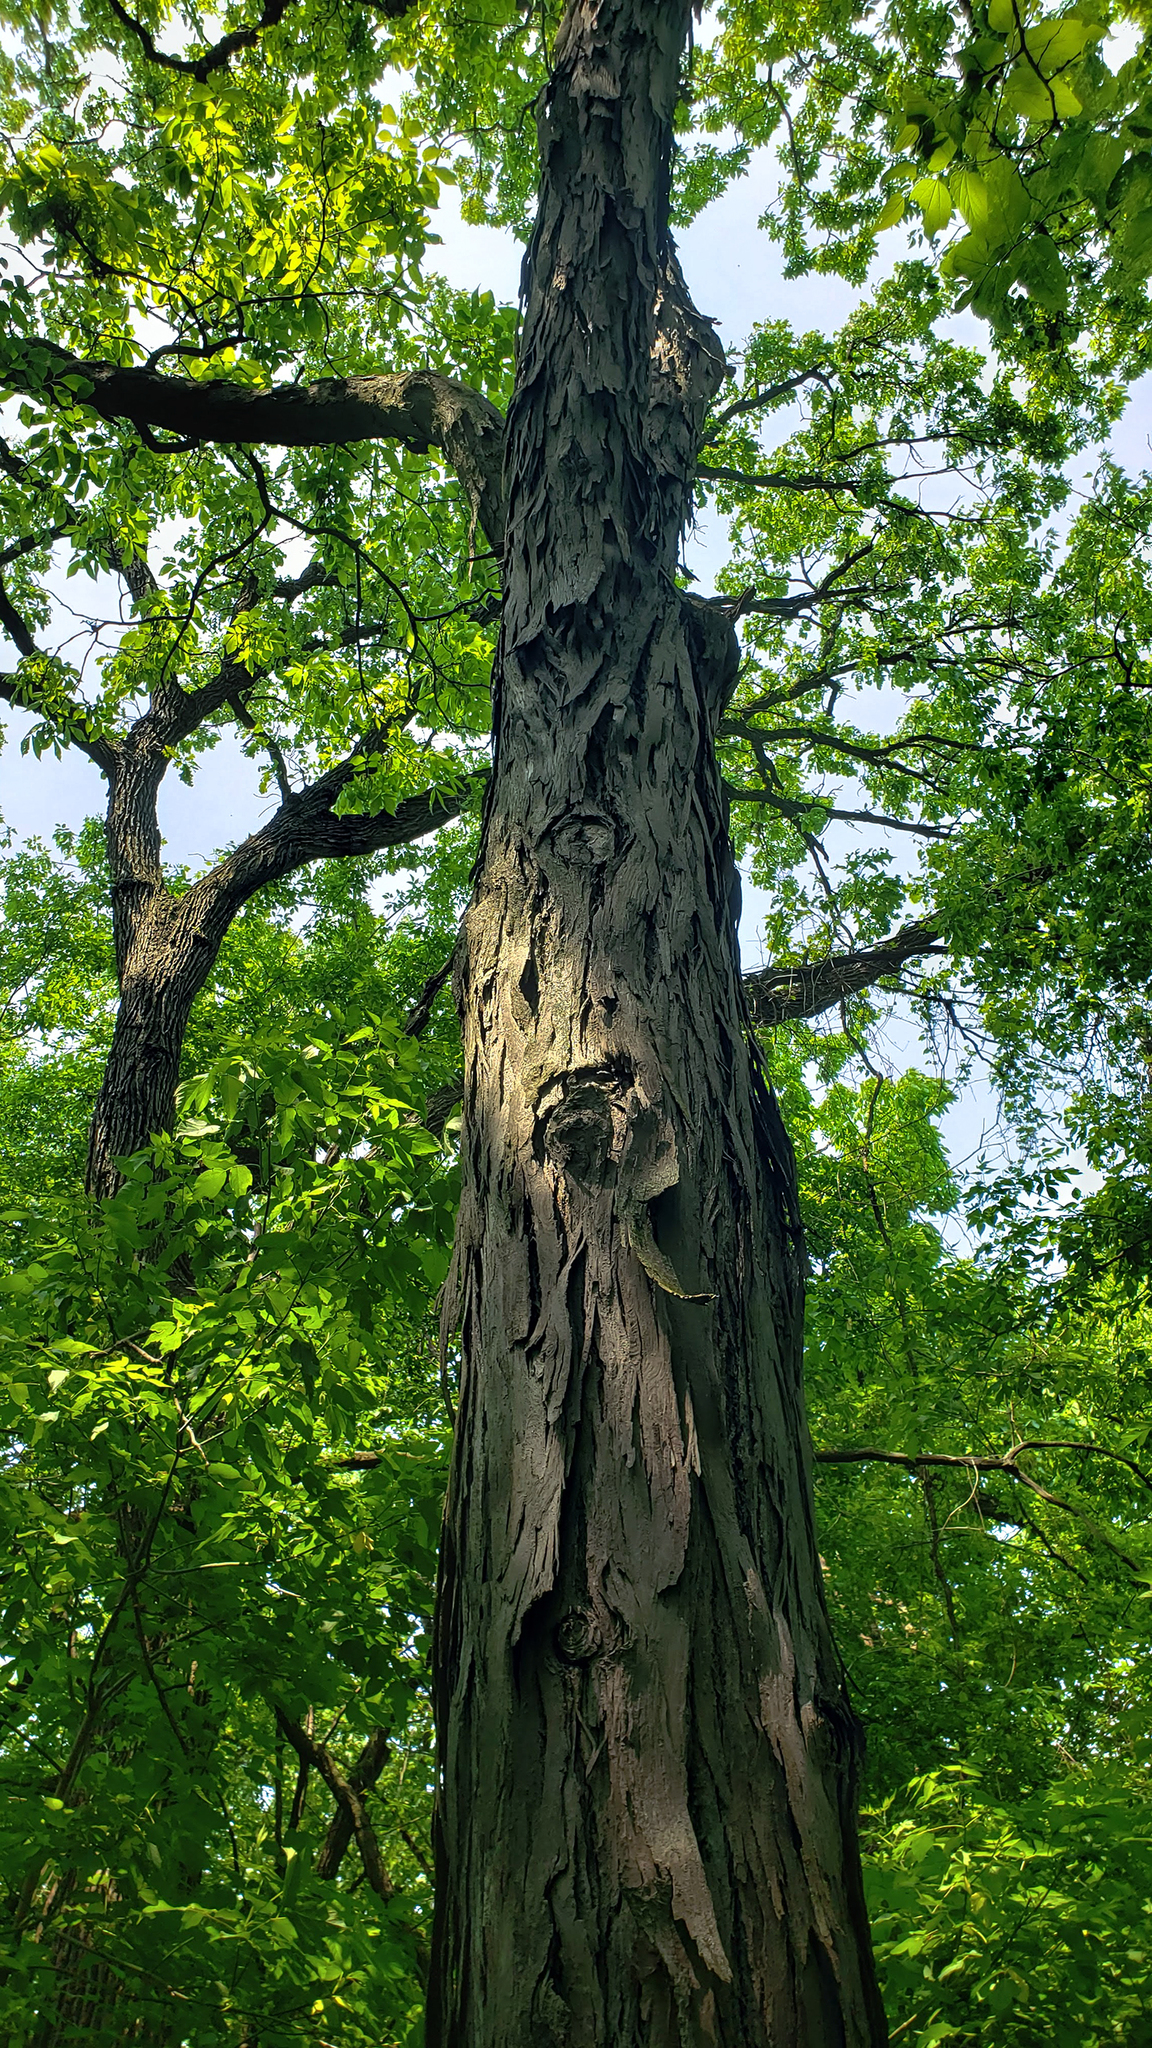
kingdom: Plantae
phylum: Tracheophyta
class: Magnoliopsida
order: Fagales
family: Juglandaceae
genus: Carya
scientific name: Carya ovata
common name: Shagbark hickory
